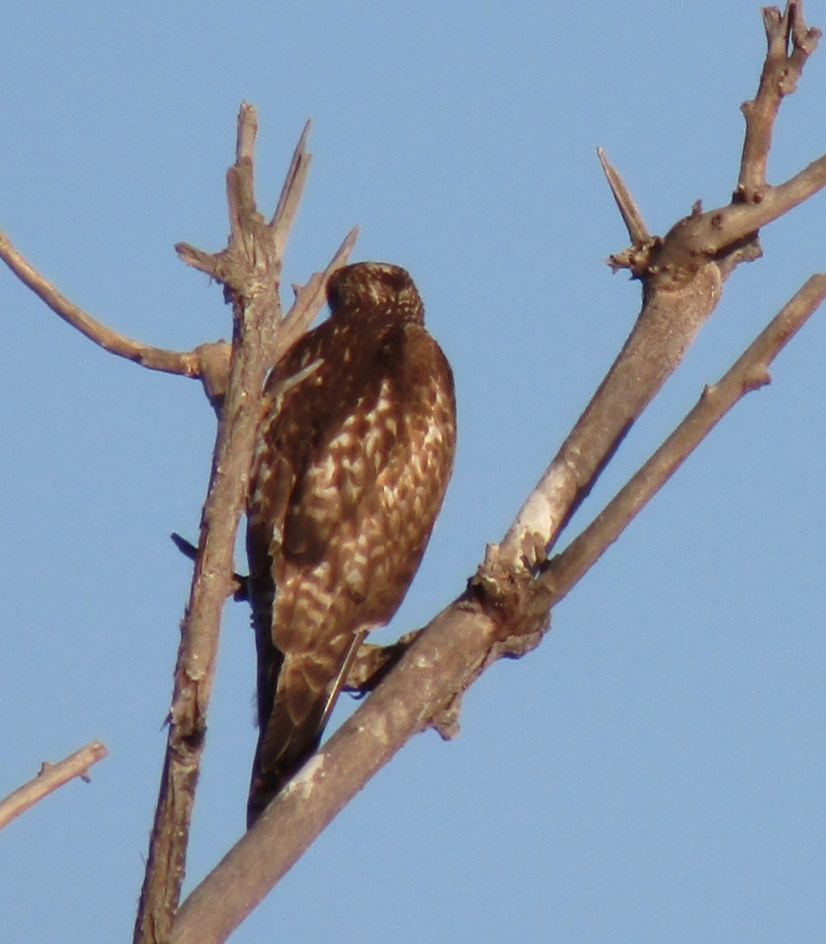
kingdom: Animalia
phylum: Chordata
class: Aves
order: Accipitriformes
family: Accipitridae
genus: Buteo
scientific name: Buteo jamaicensis
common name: Red-tailed hawk
